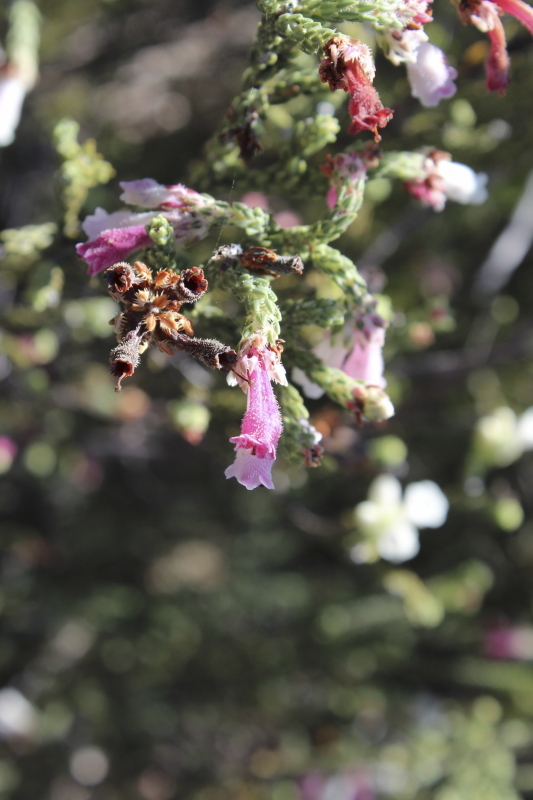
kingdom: Plantae
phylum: Tracheophyta
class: Magnoliopsida
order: Ericales
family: Ericaceae
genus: Erica
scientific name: Erica pectinifolia
